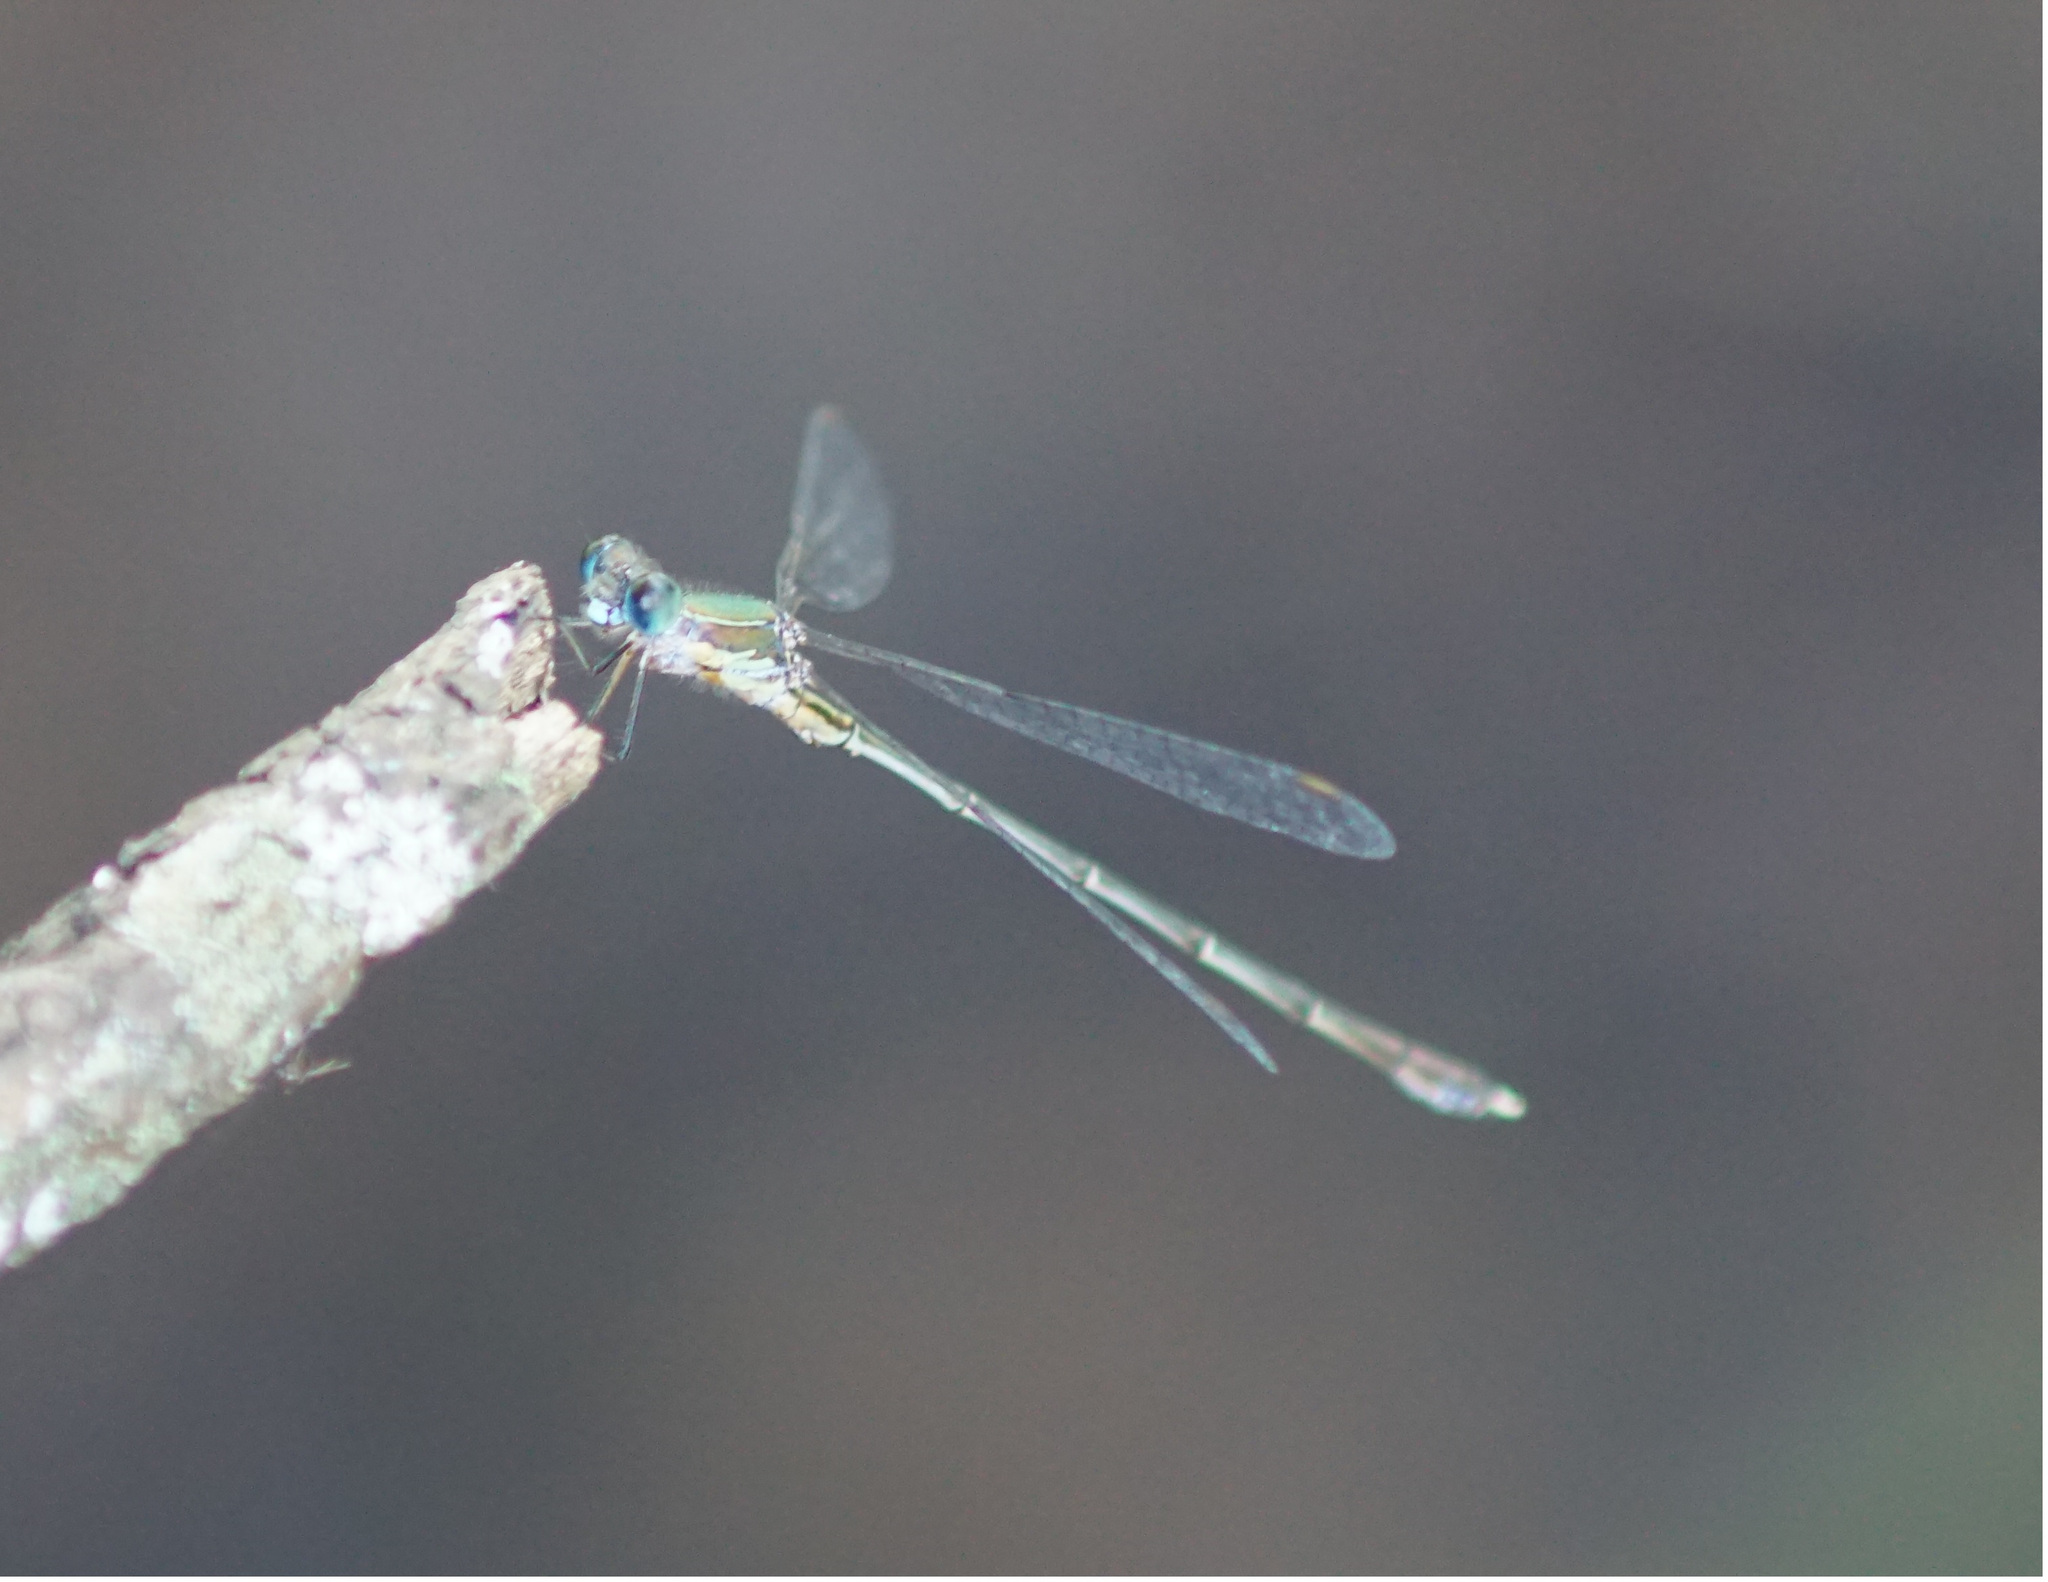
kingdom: Animalia
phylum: Arthropoda
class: Insecta
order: Odonata
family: Lestidae
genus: Chalcolestes
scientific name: Chalcolestes parvidens
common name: Eastern willow spreadwing
